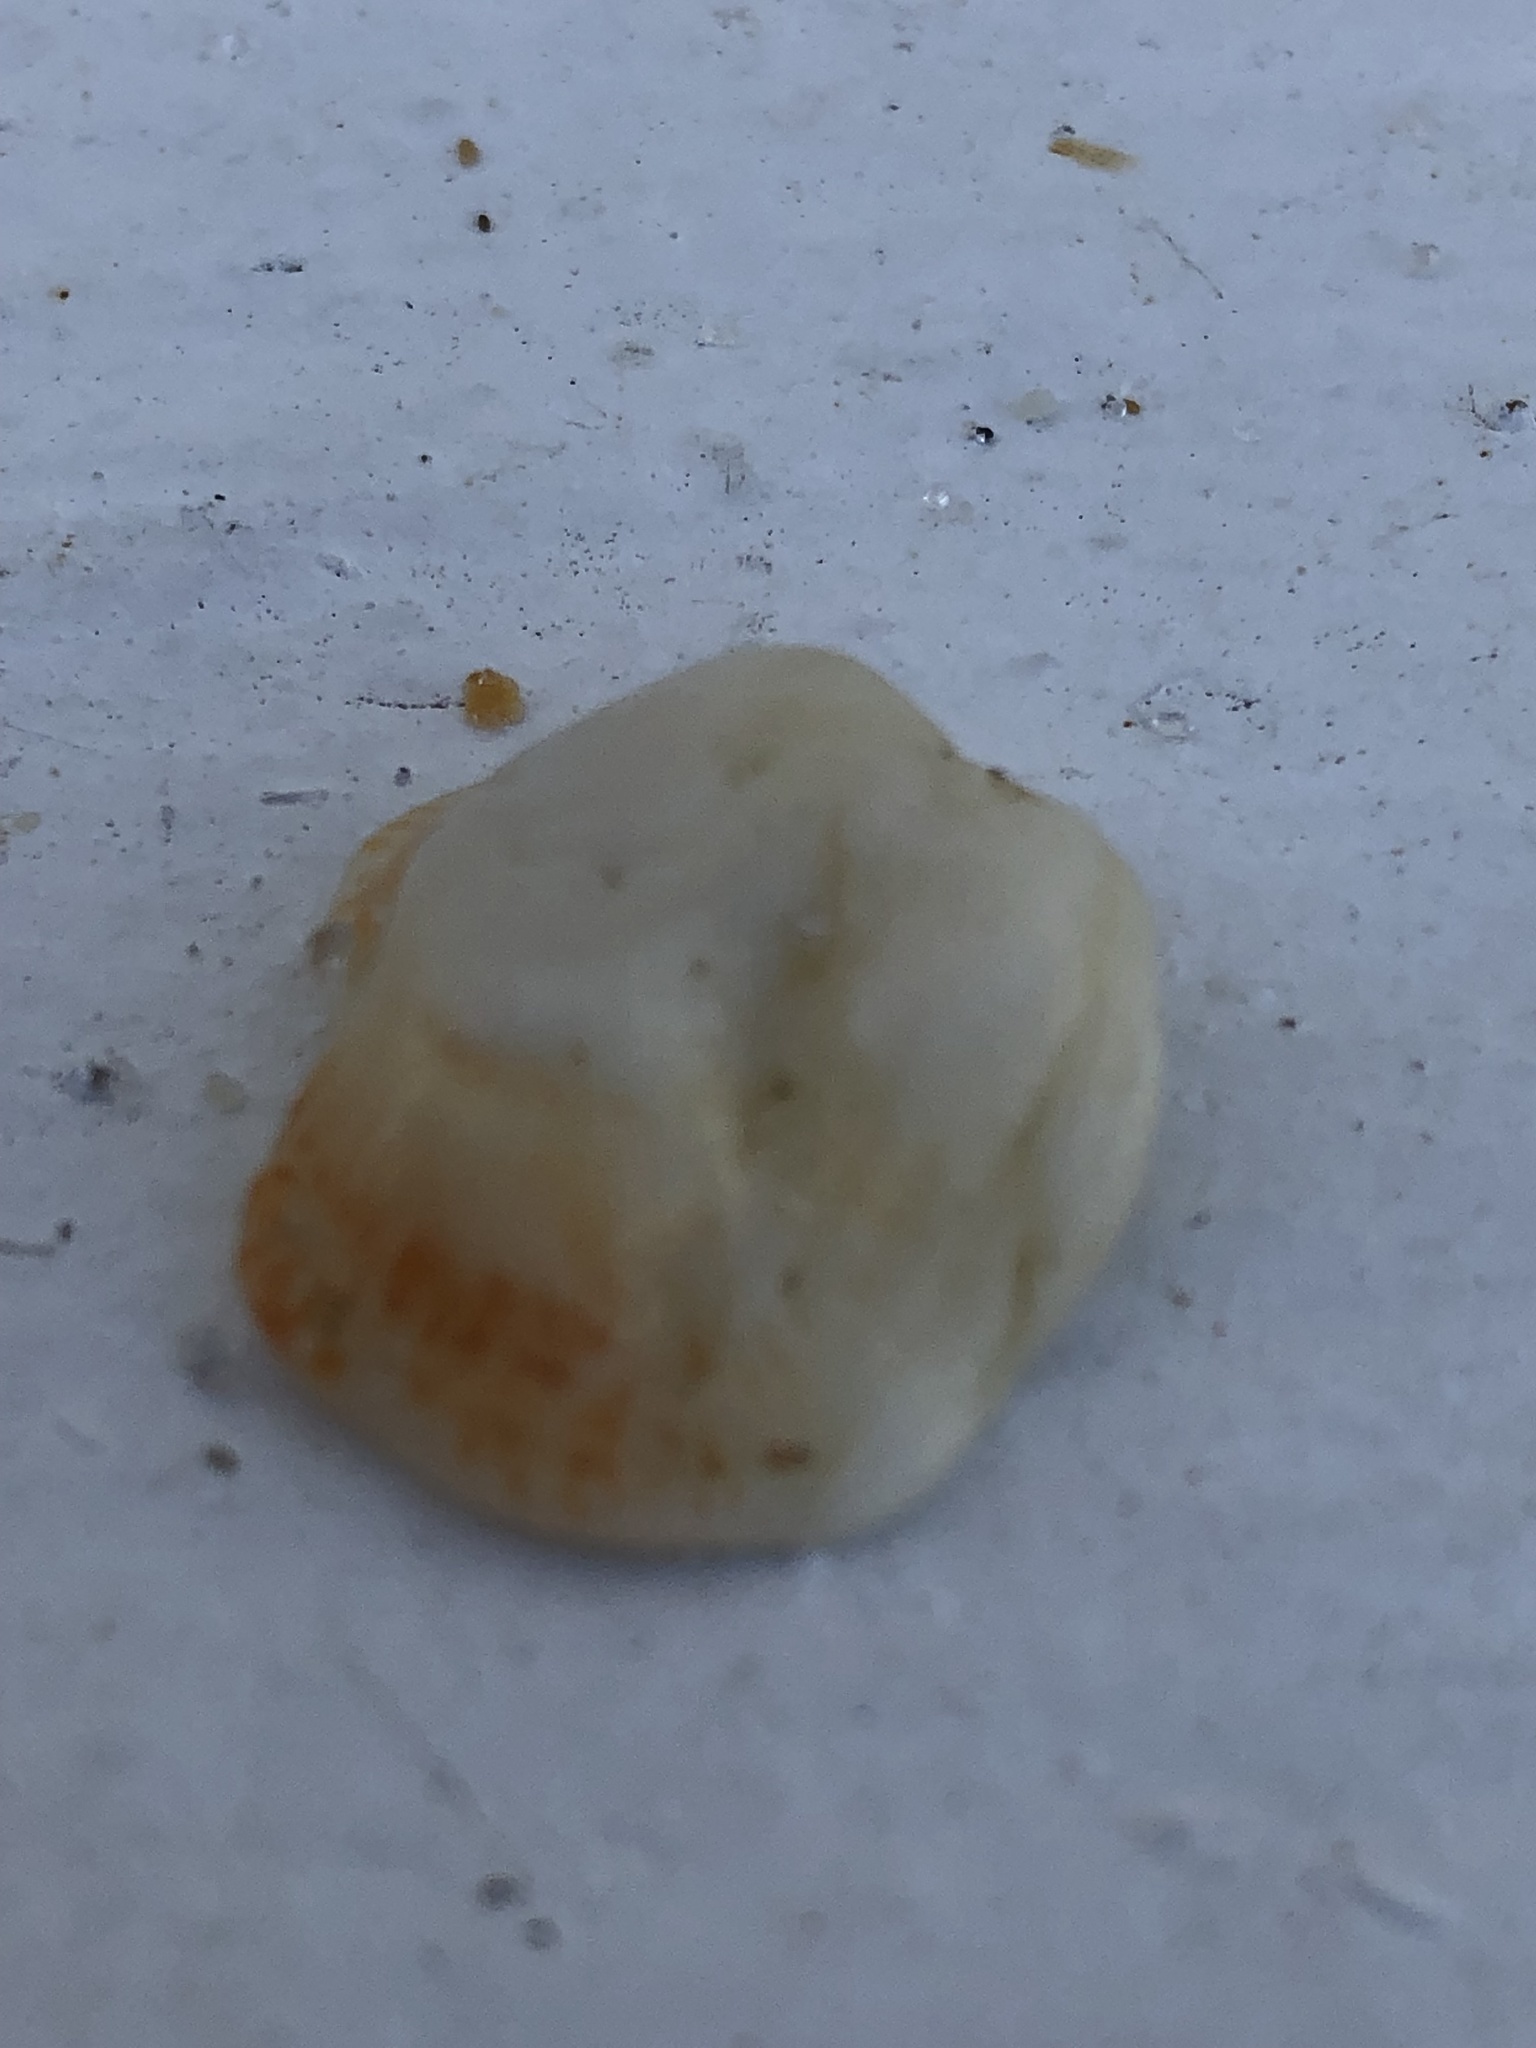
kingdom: Animalia
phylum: Mollusca
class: Bivalvia
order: Venerida
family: Chamidae
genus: Chama
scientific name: Chama congregata
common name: Corrugate jewelbox
